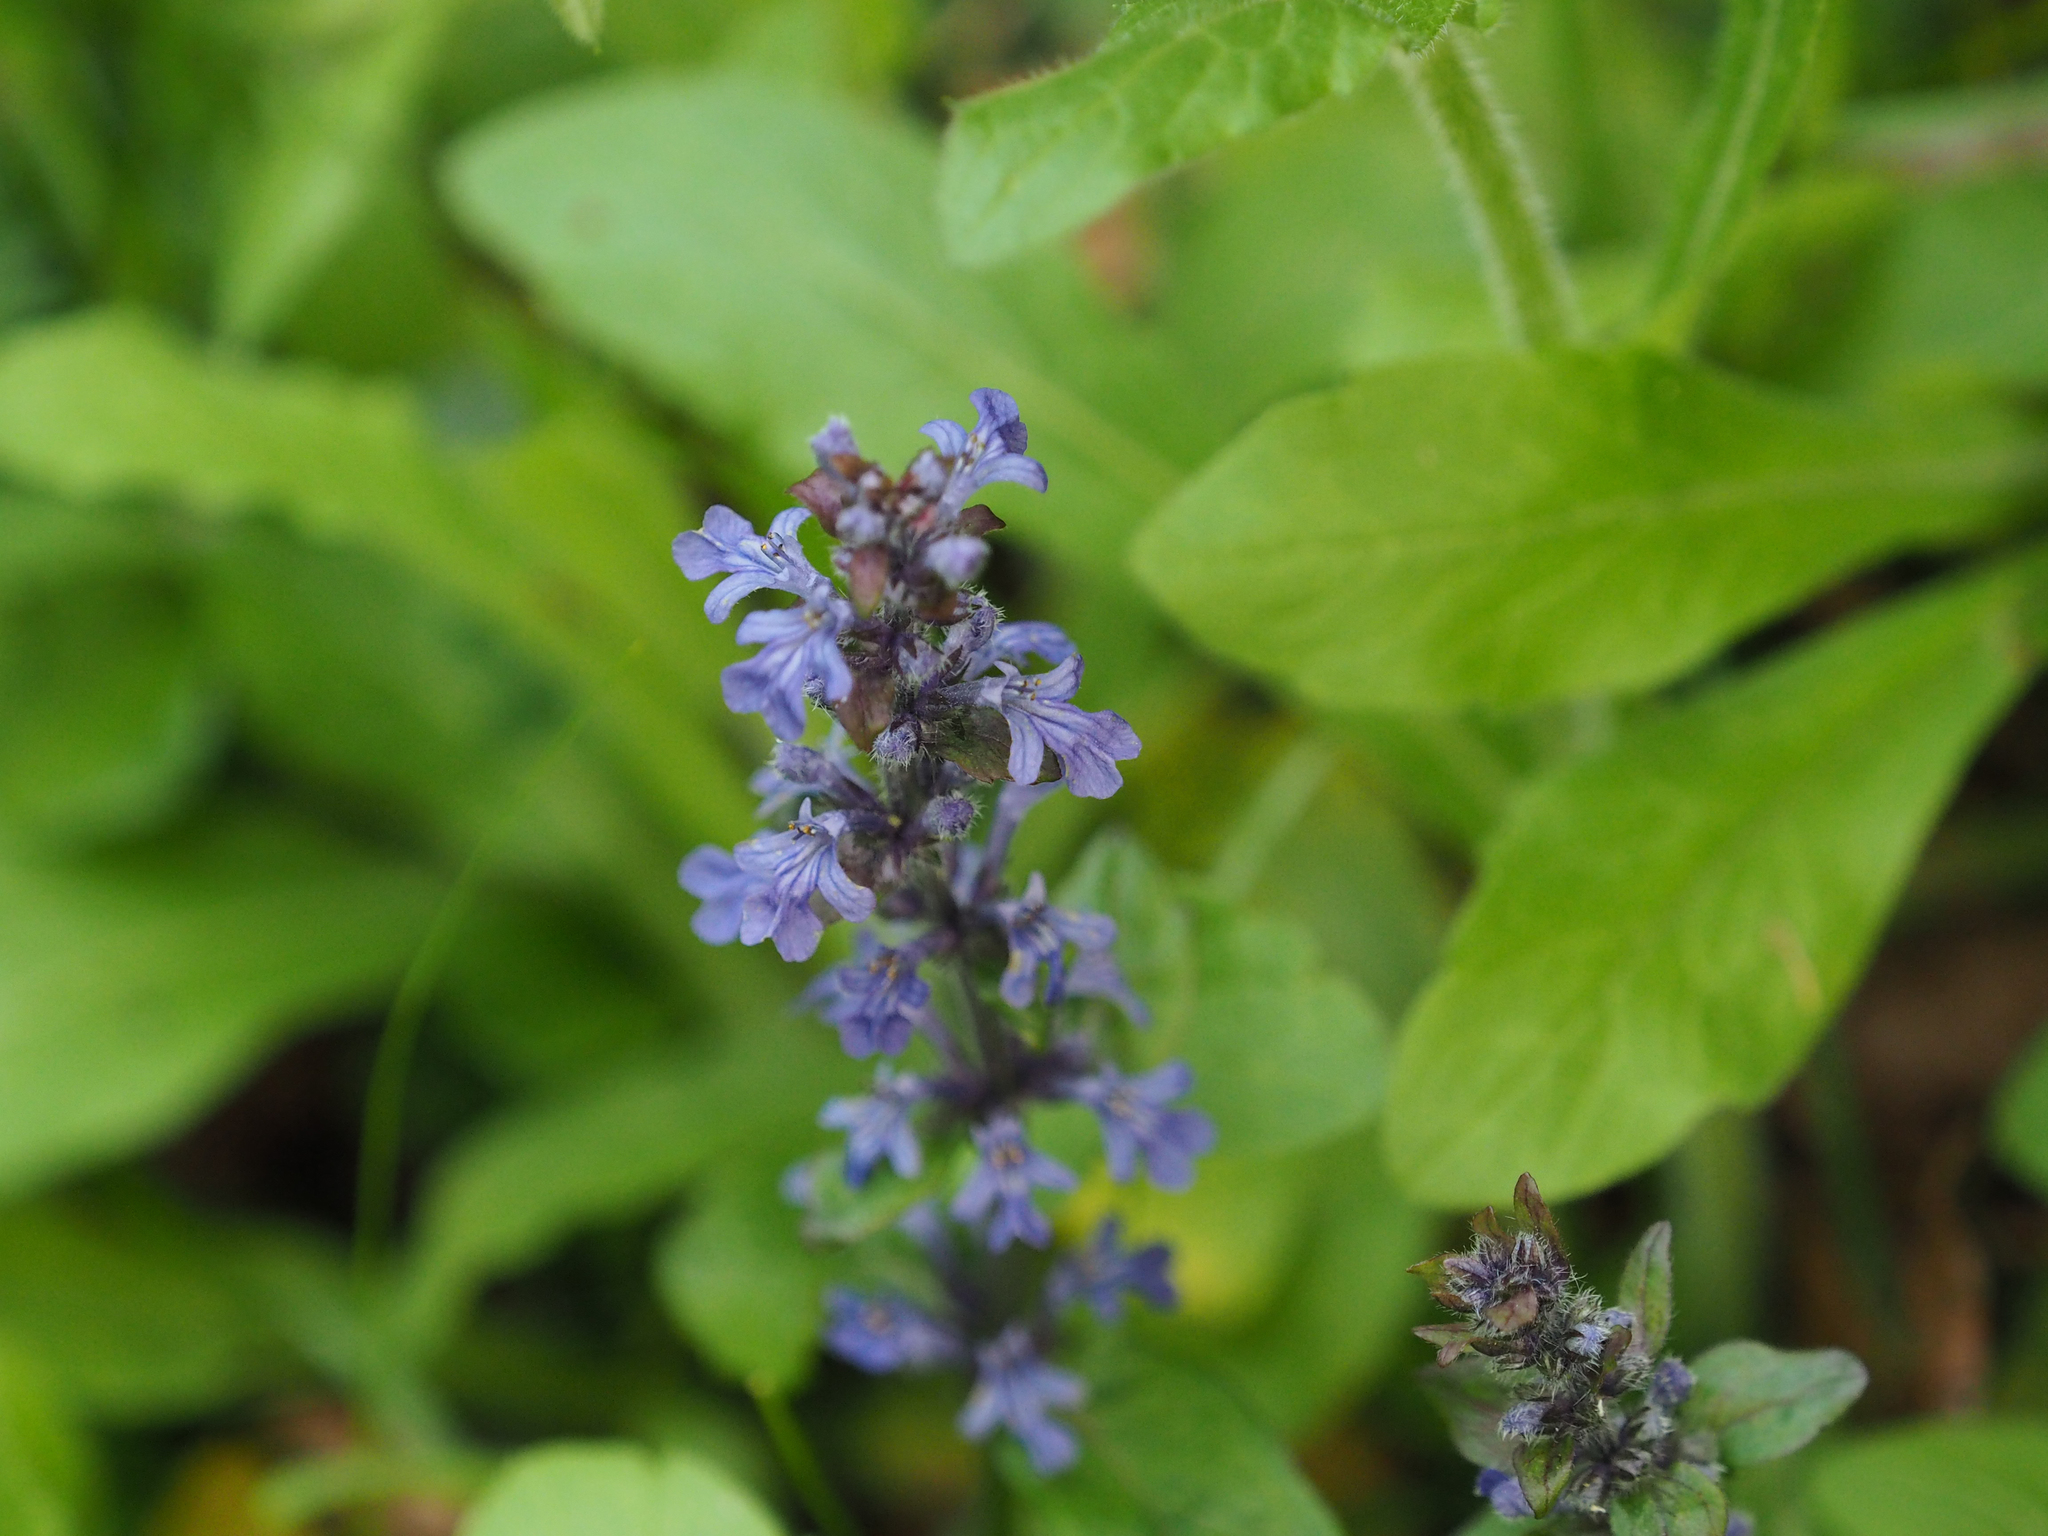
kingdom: Plantae
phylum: Tracheophyta
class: Magnoliopsida
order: Lamiales
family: Lamiaceae
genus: Ajuga
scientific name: Ajuga reptans
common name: Bugle
